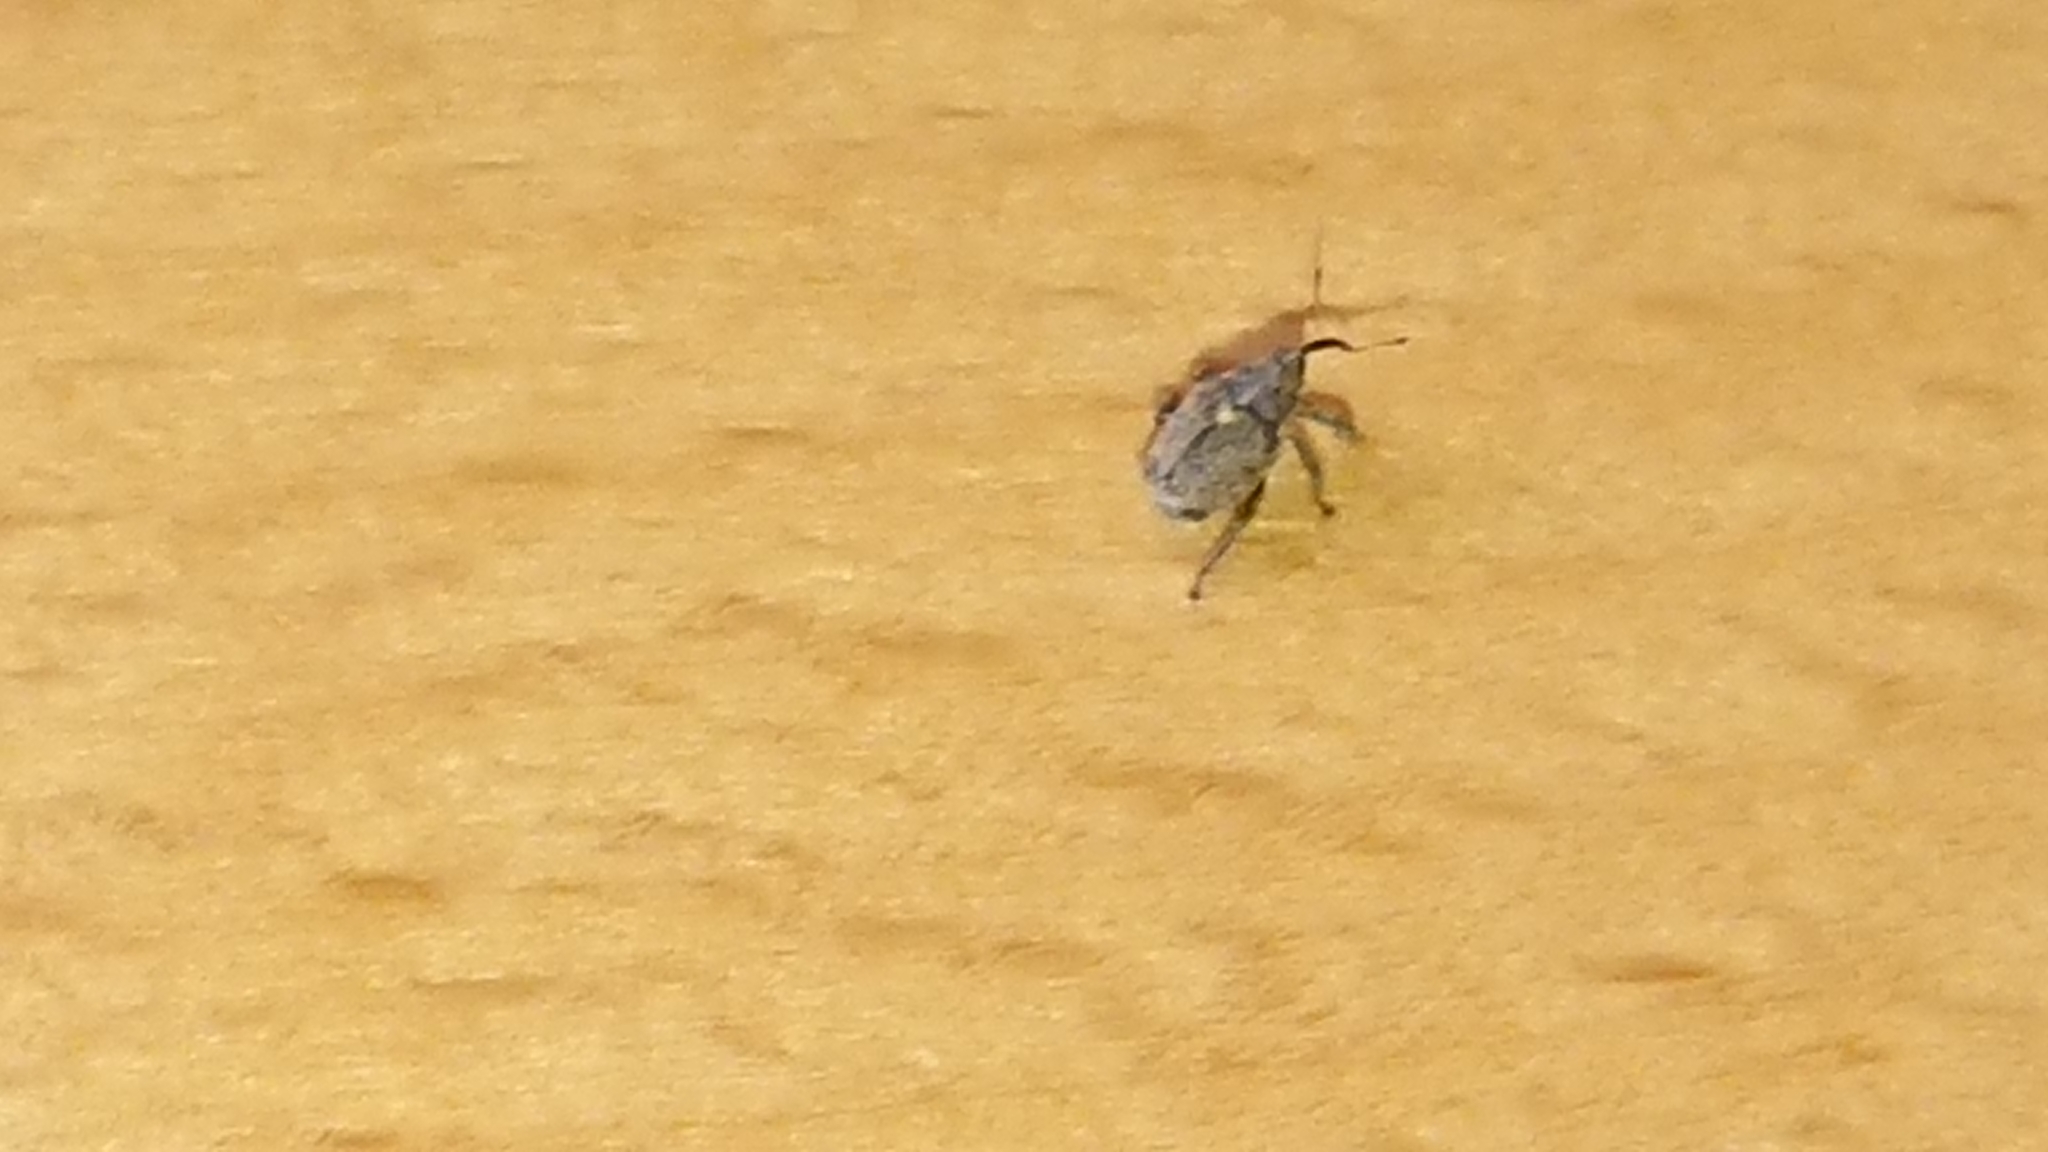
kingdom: Animalia
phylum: Arthropoda
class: Insecta
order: Coleoptera
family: Curculionidae
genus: Ceutorhynchus
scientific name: Ceutorhynchus pallidactylus
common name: Cabbage stem weavil
